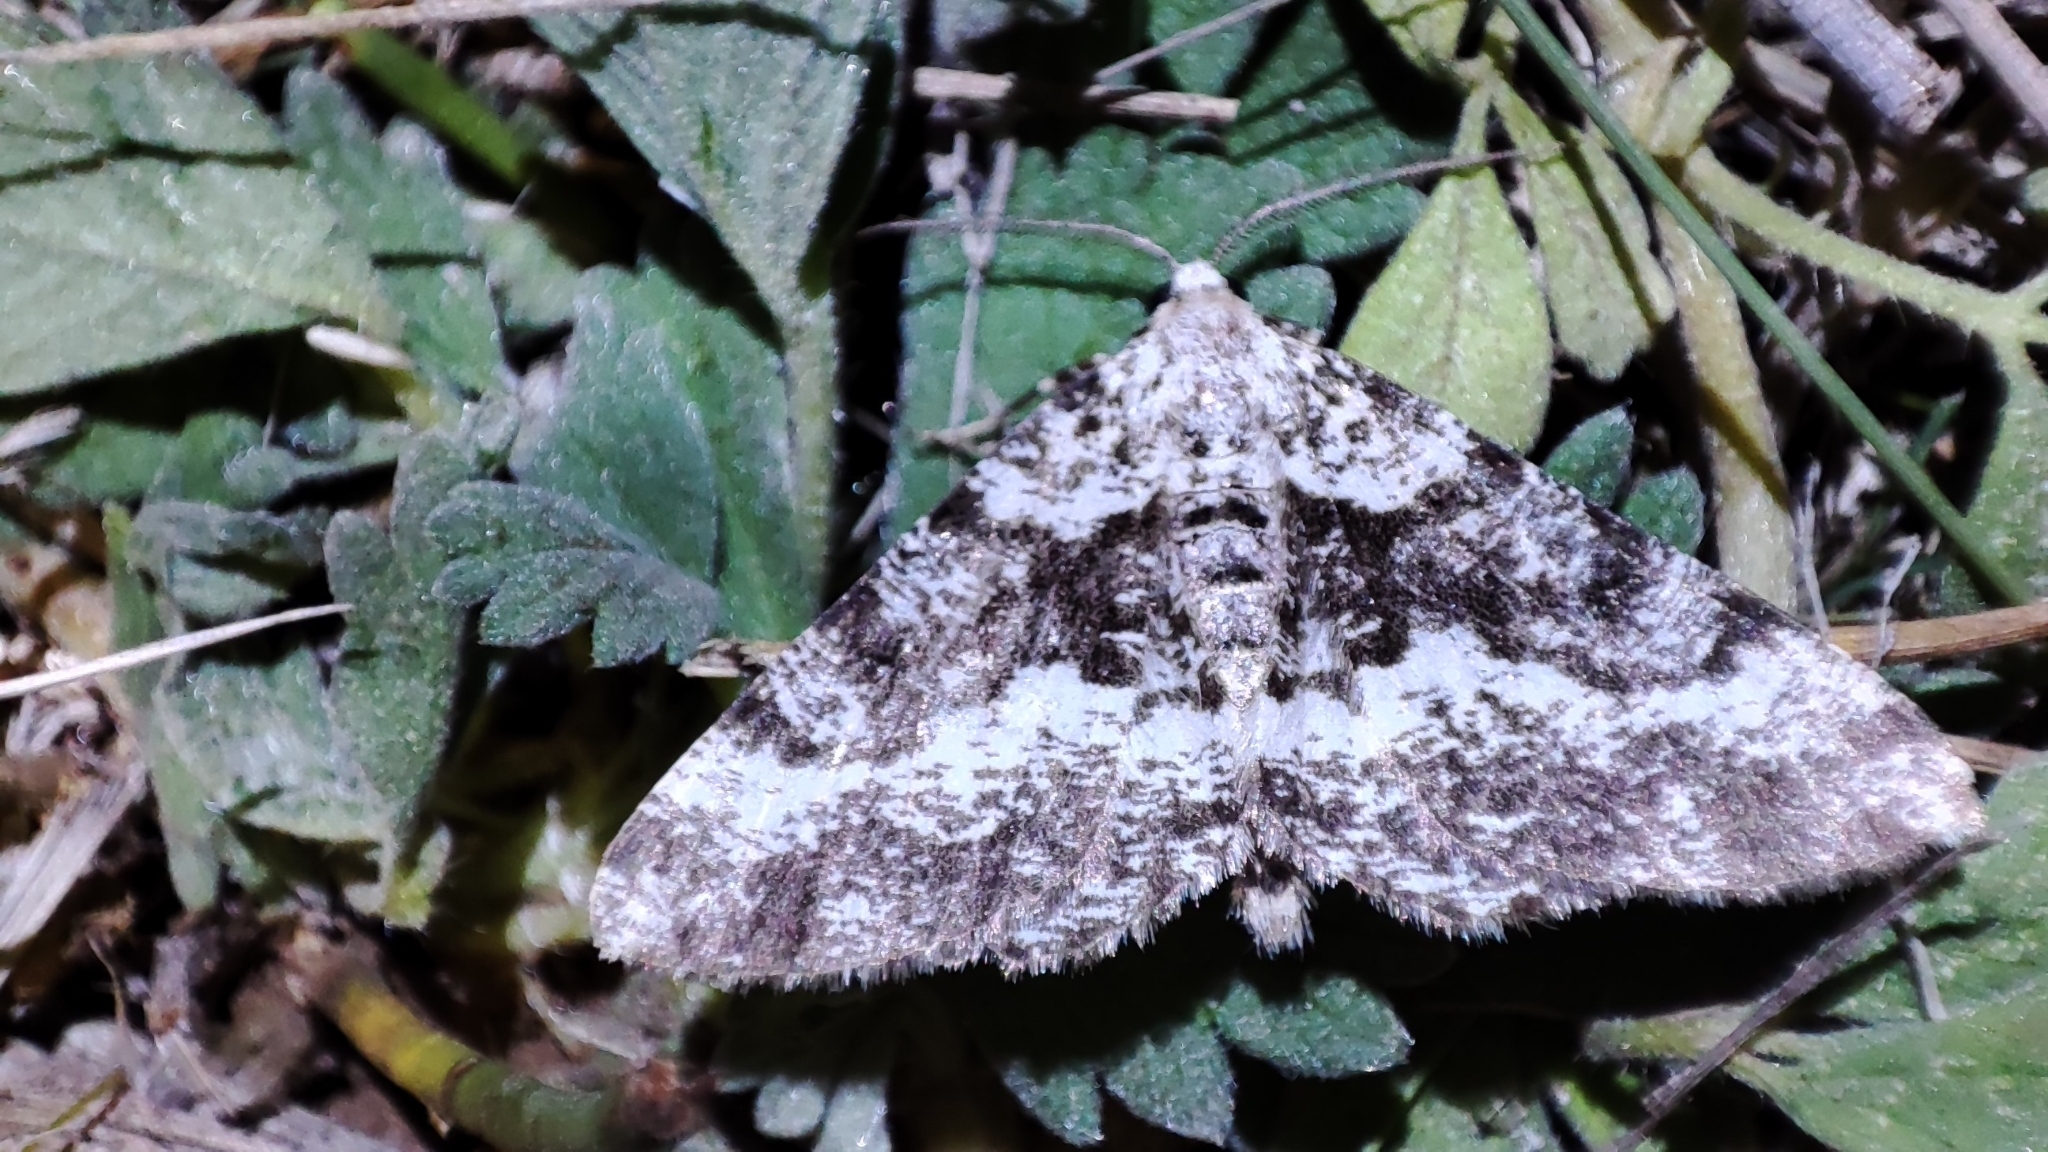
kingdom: Animalia
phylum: Arthropoda
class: Insecta
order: Lepidoptera
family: Geometridae
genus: Arichanna
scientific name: Arichanna mandshuriaria
